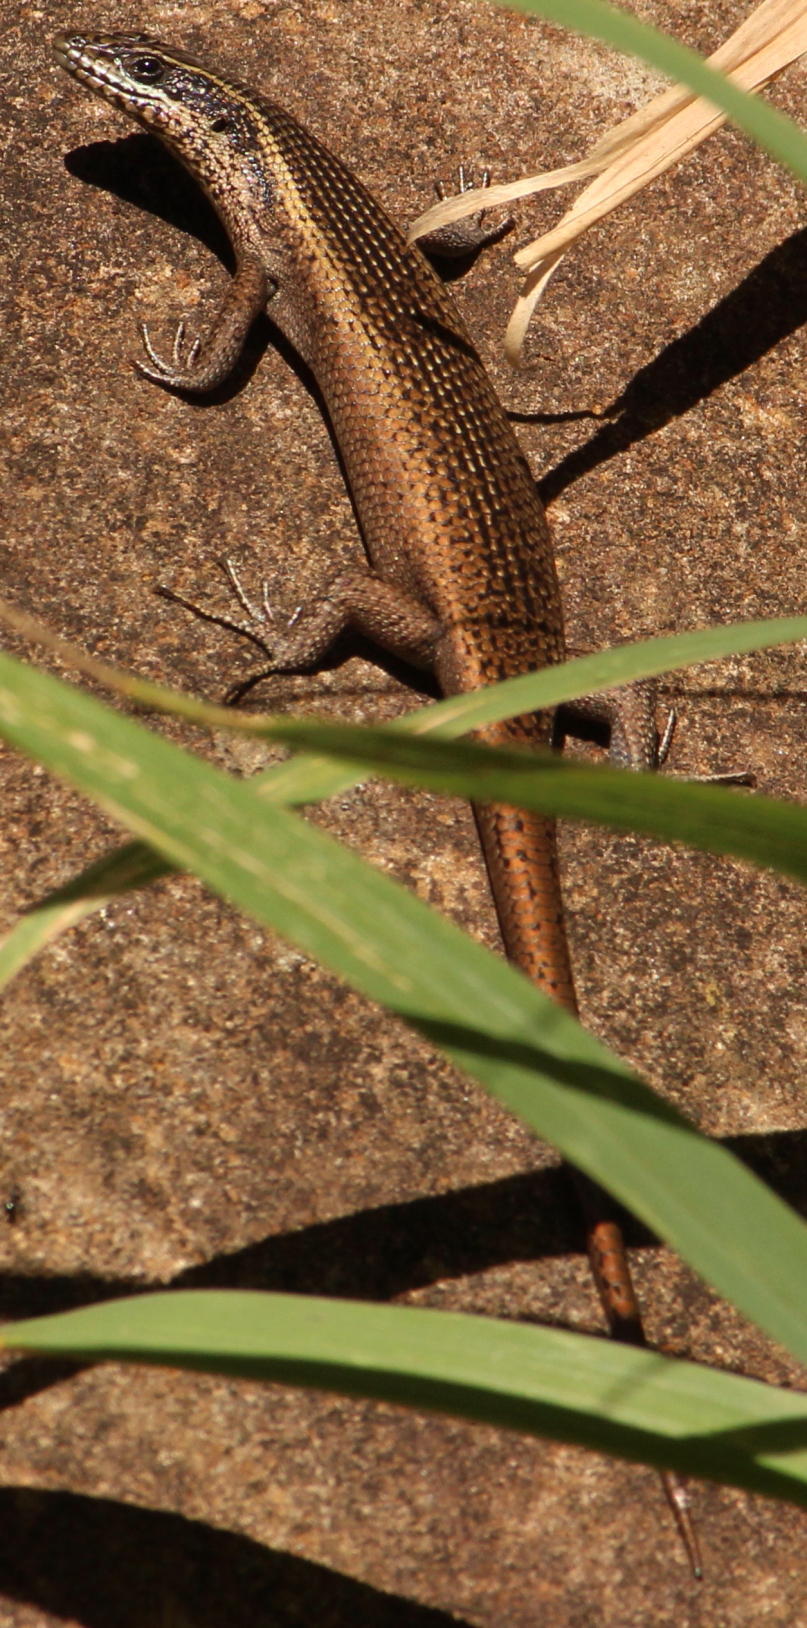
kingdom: Animalia
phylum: Chordata
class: Squamata
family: Scincidae
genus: Trachylepis
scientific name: Trachylepis punctatissima
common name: Montane speckled skink
